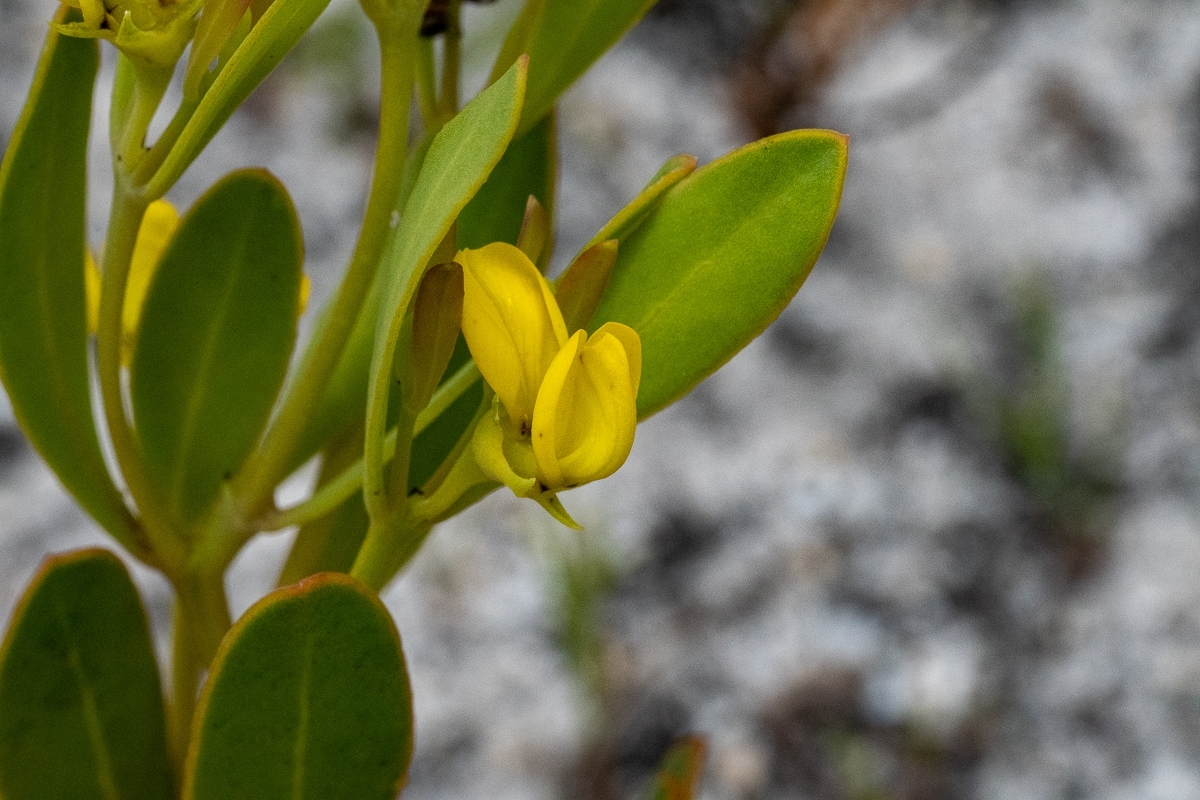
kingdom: Plantae
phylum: Tracheophyta
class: Magnoliopsida
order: Fabales
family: Fabaceae
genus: Rafnia
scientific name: Rafnia capensis
